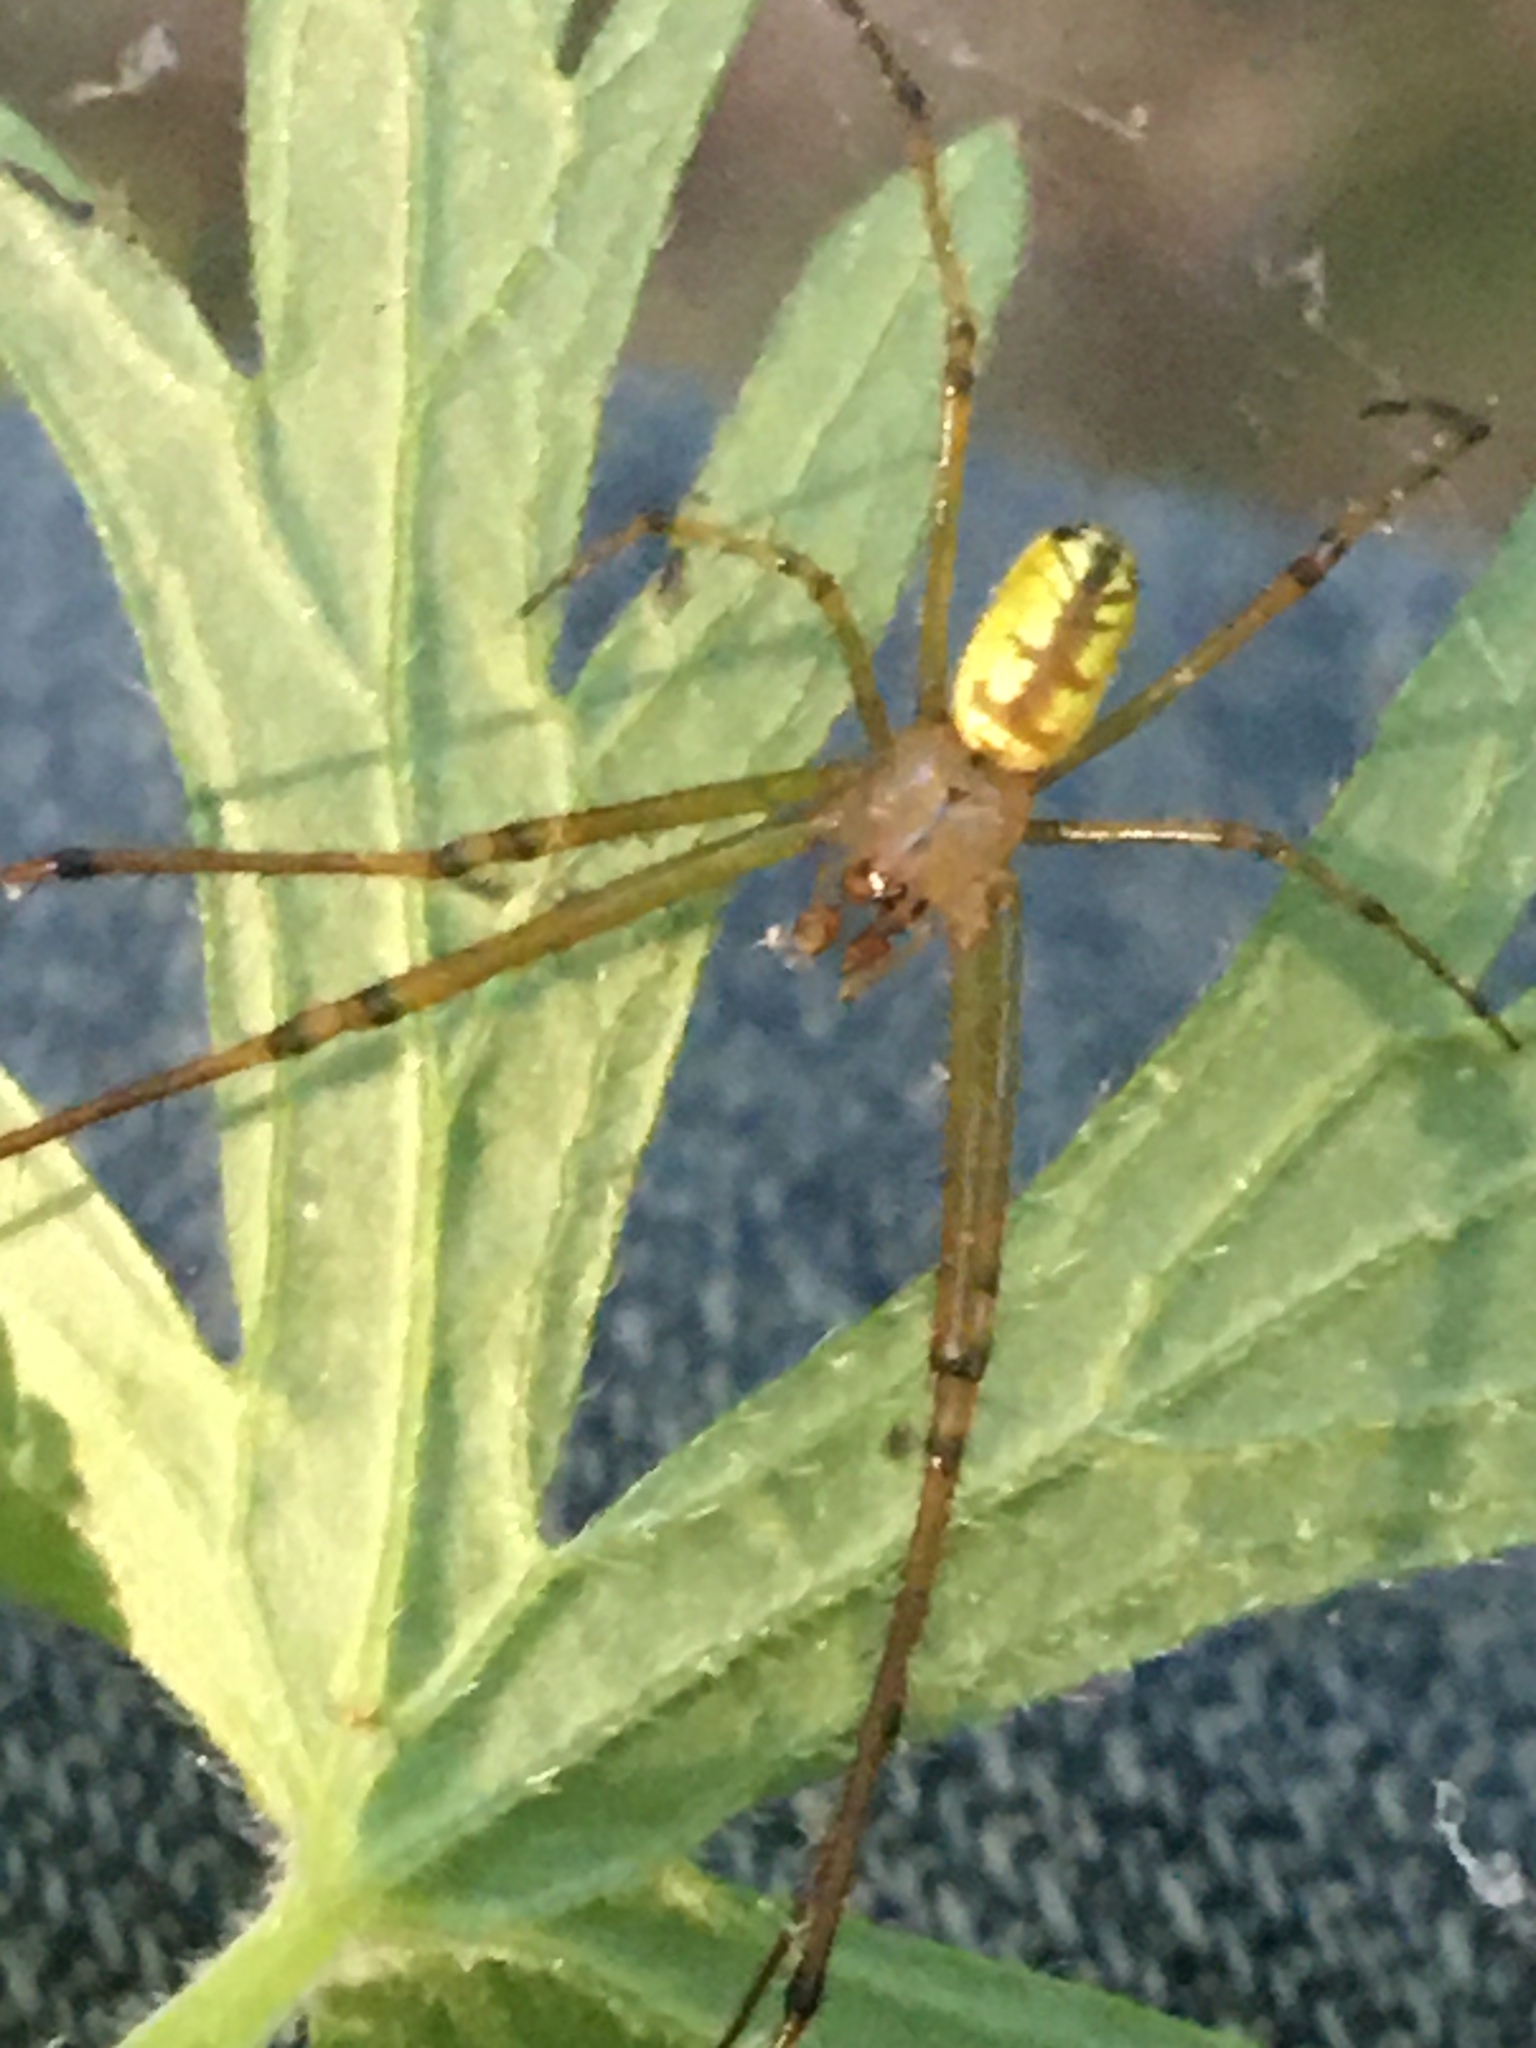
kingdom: Animalia
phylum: Arthropoda
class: Arachnida
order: Araneae
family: Tetragnathidae
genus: Leucauge
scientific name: Leucauge venusta
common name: Longjawed orb weavers
